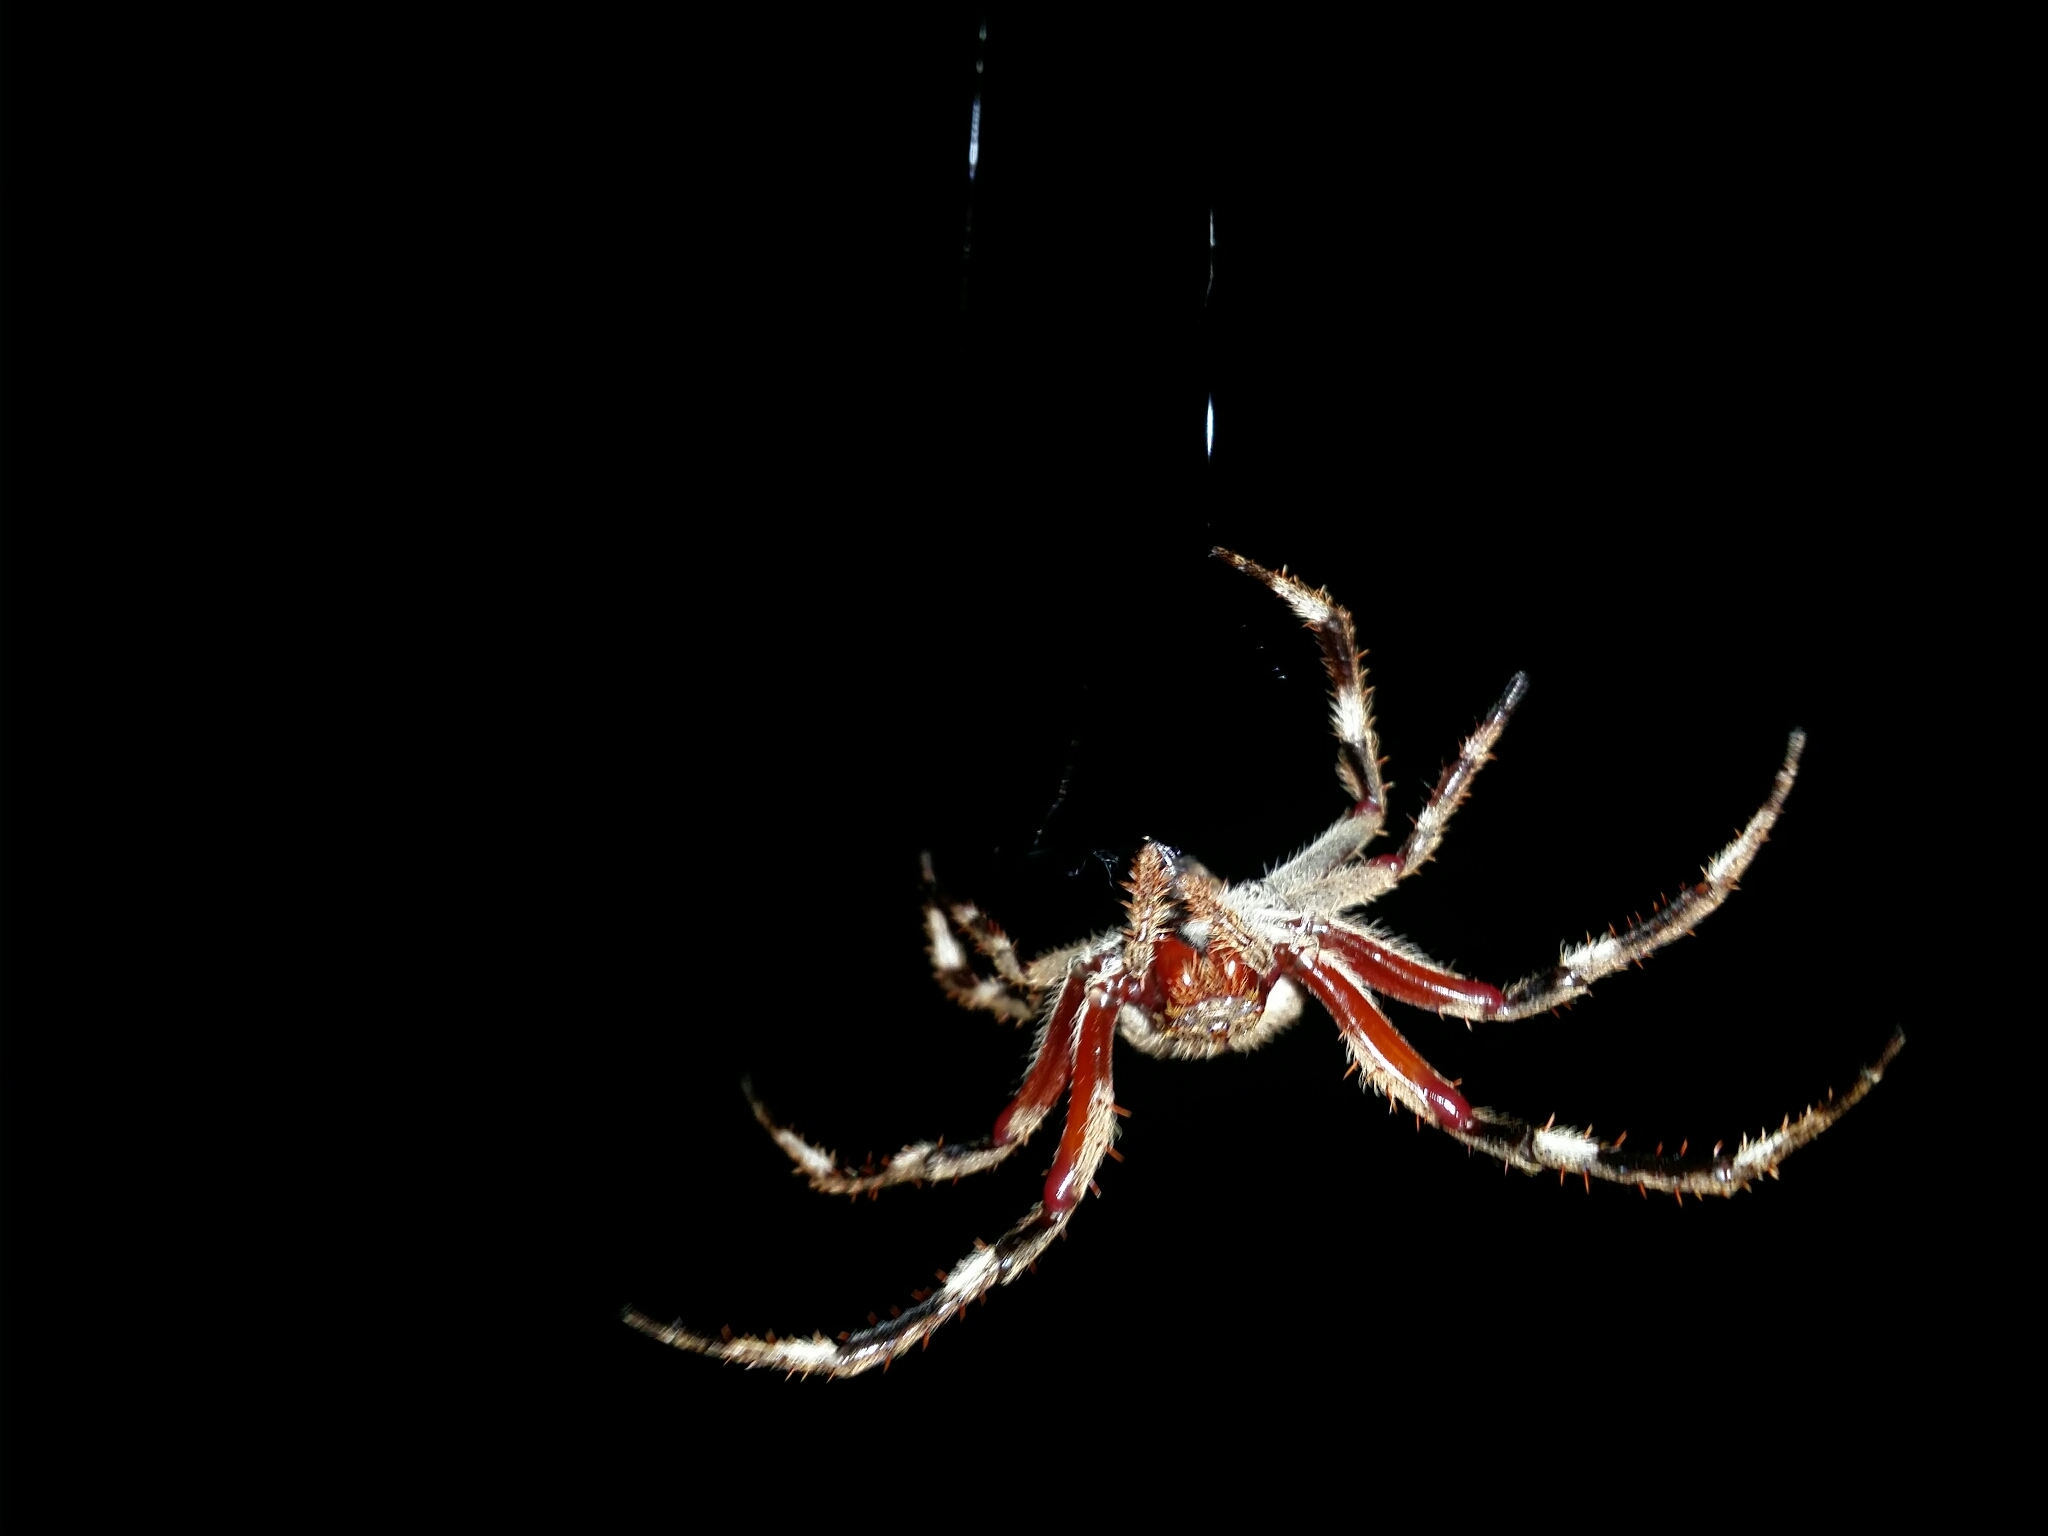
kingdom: Animalia
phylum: Arthropoda
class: Arachnida
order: Araneae
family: Araneidae
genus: Hortophora
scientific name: Hortophora biapicata
